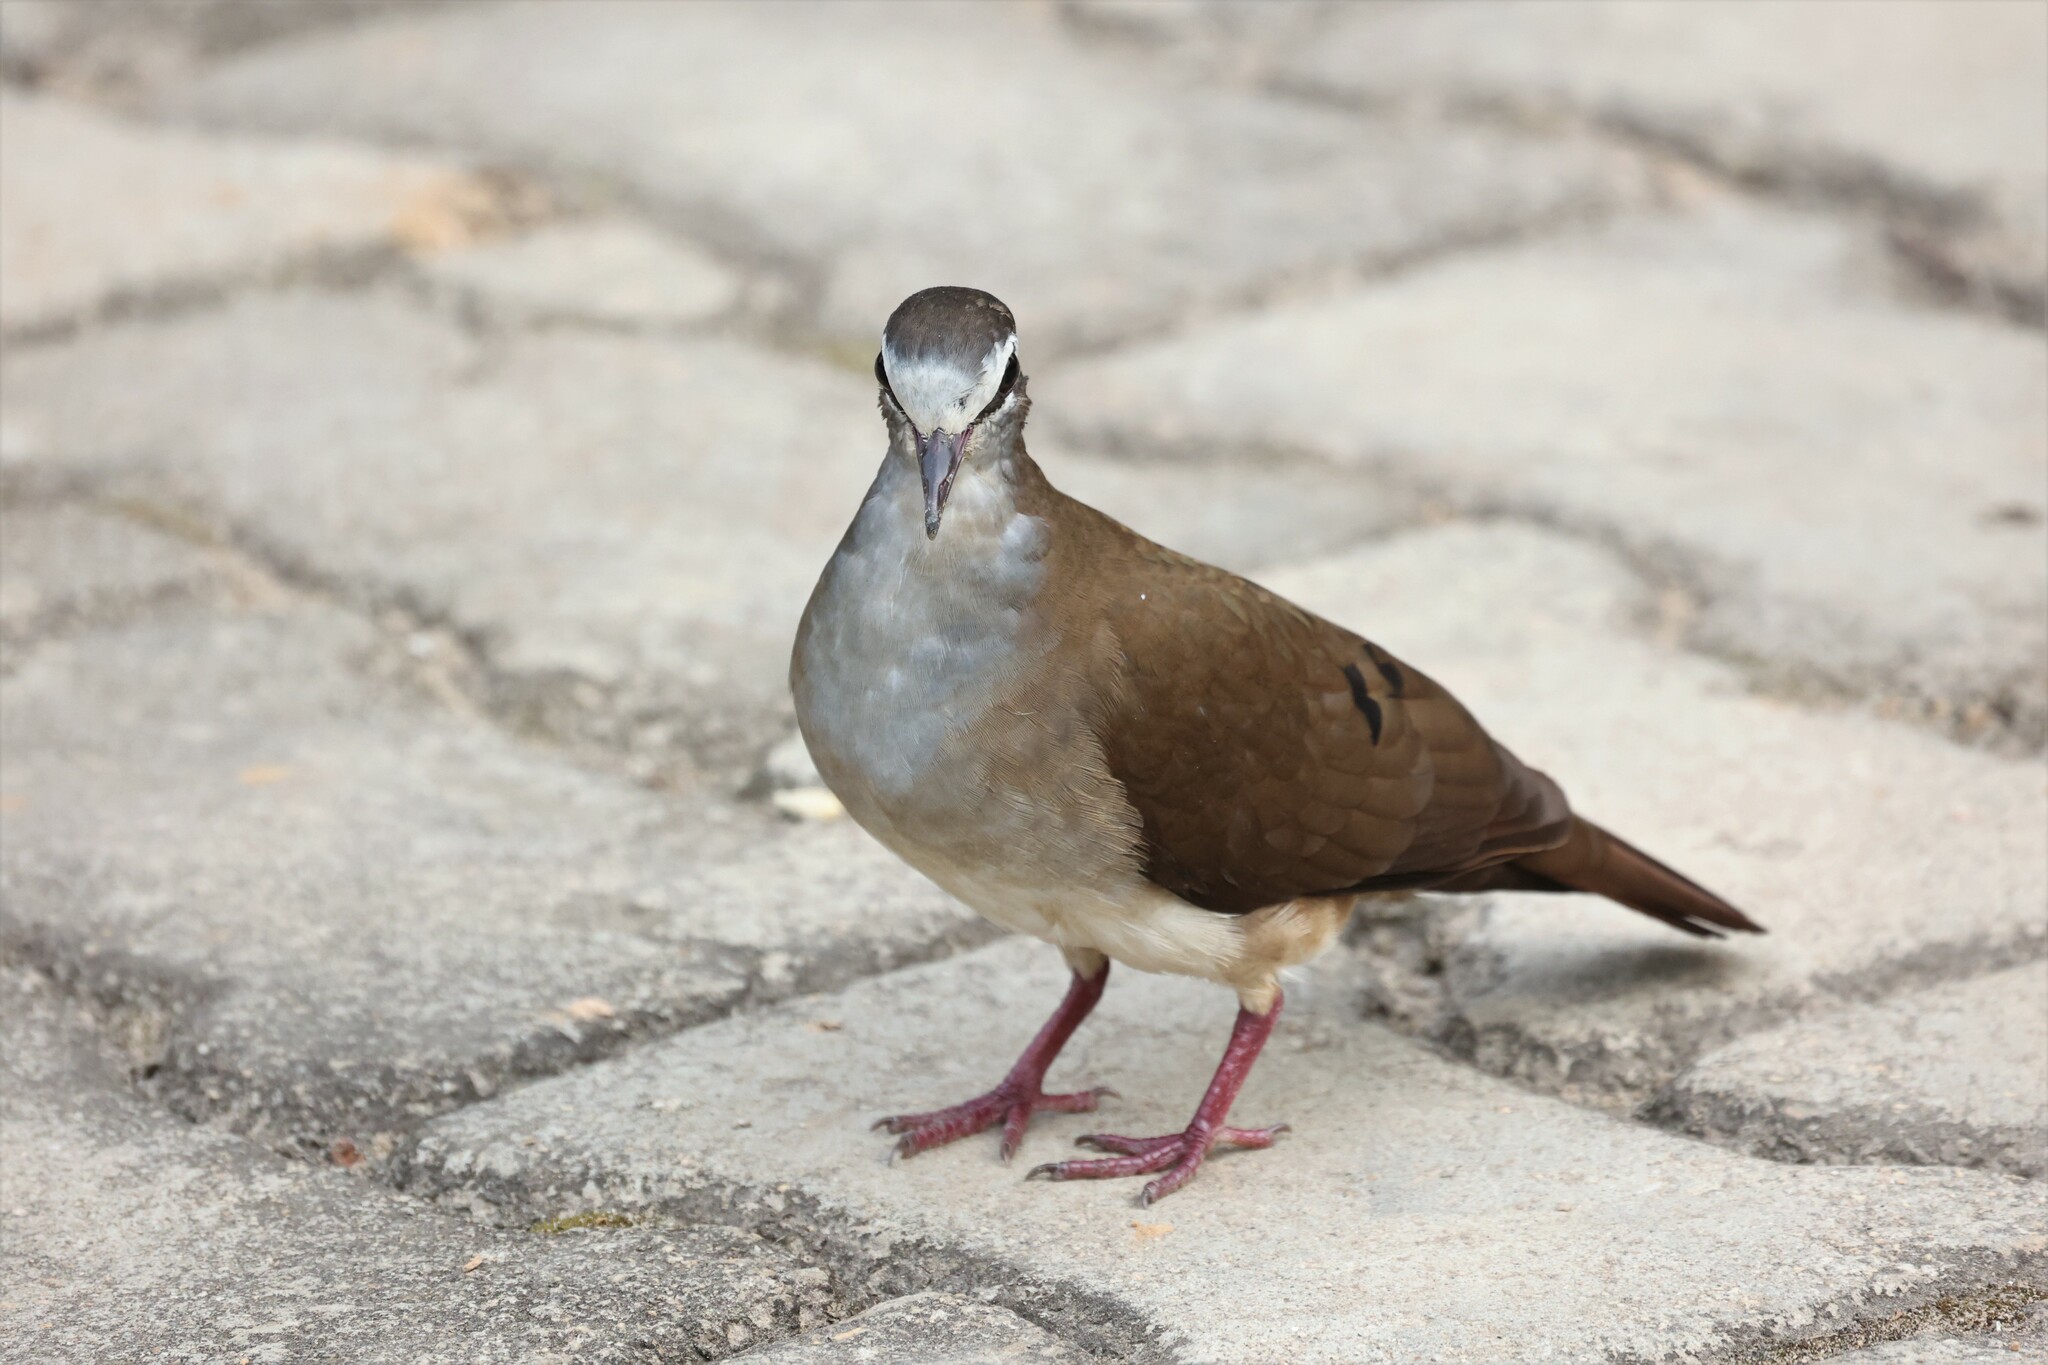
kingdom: Animalia
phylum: Chordata
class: Aves
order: Columbiformes
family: Columbidae
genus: Turtur
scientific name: Turtur tympanistria
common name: Tambourine dove
